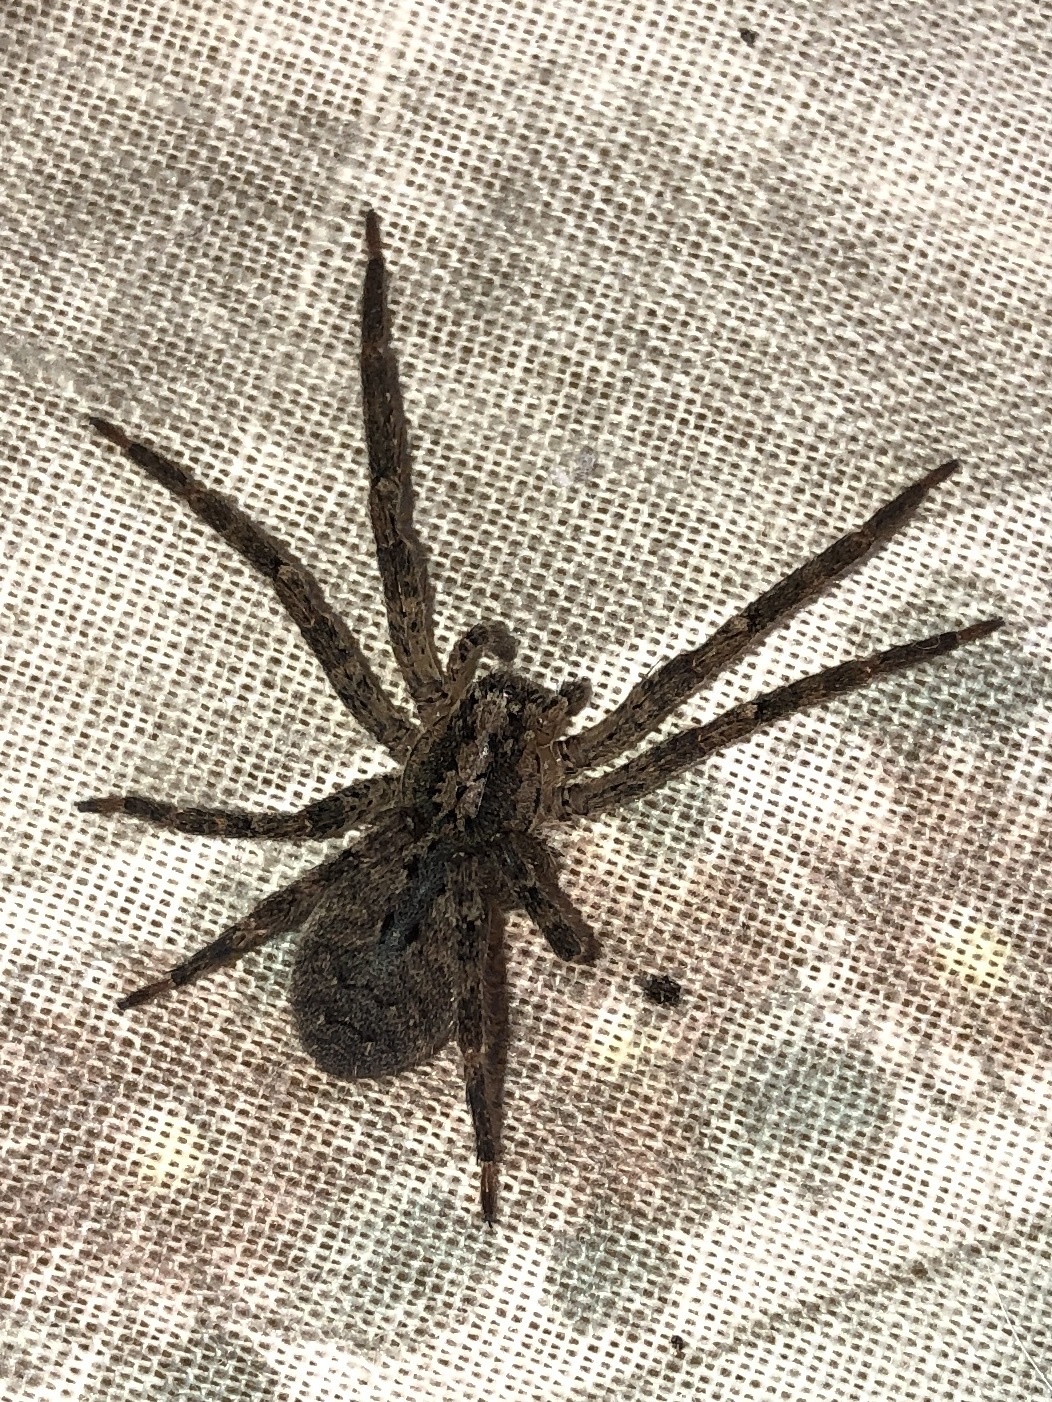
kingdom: Animalia
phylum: Arthropoda
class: Arachnida
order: Araneae
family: Zoropsidae
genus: Zoropsis
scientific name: Zoropsis spinimana
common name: Zoropsid spider
